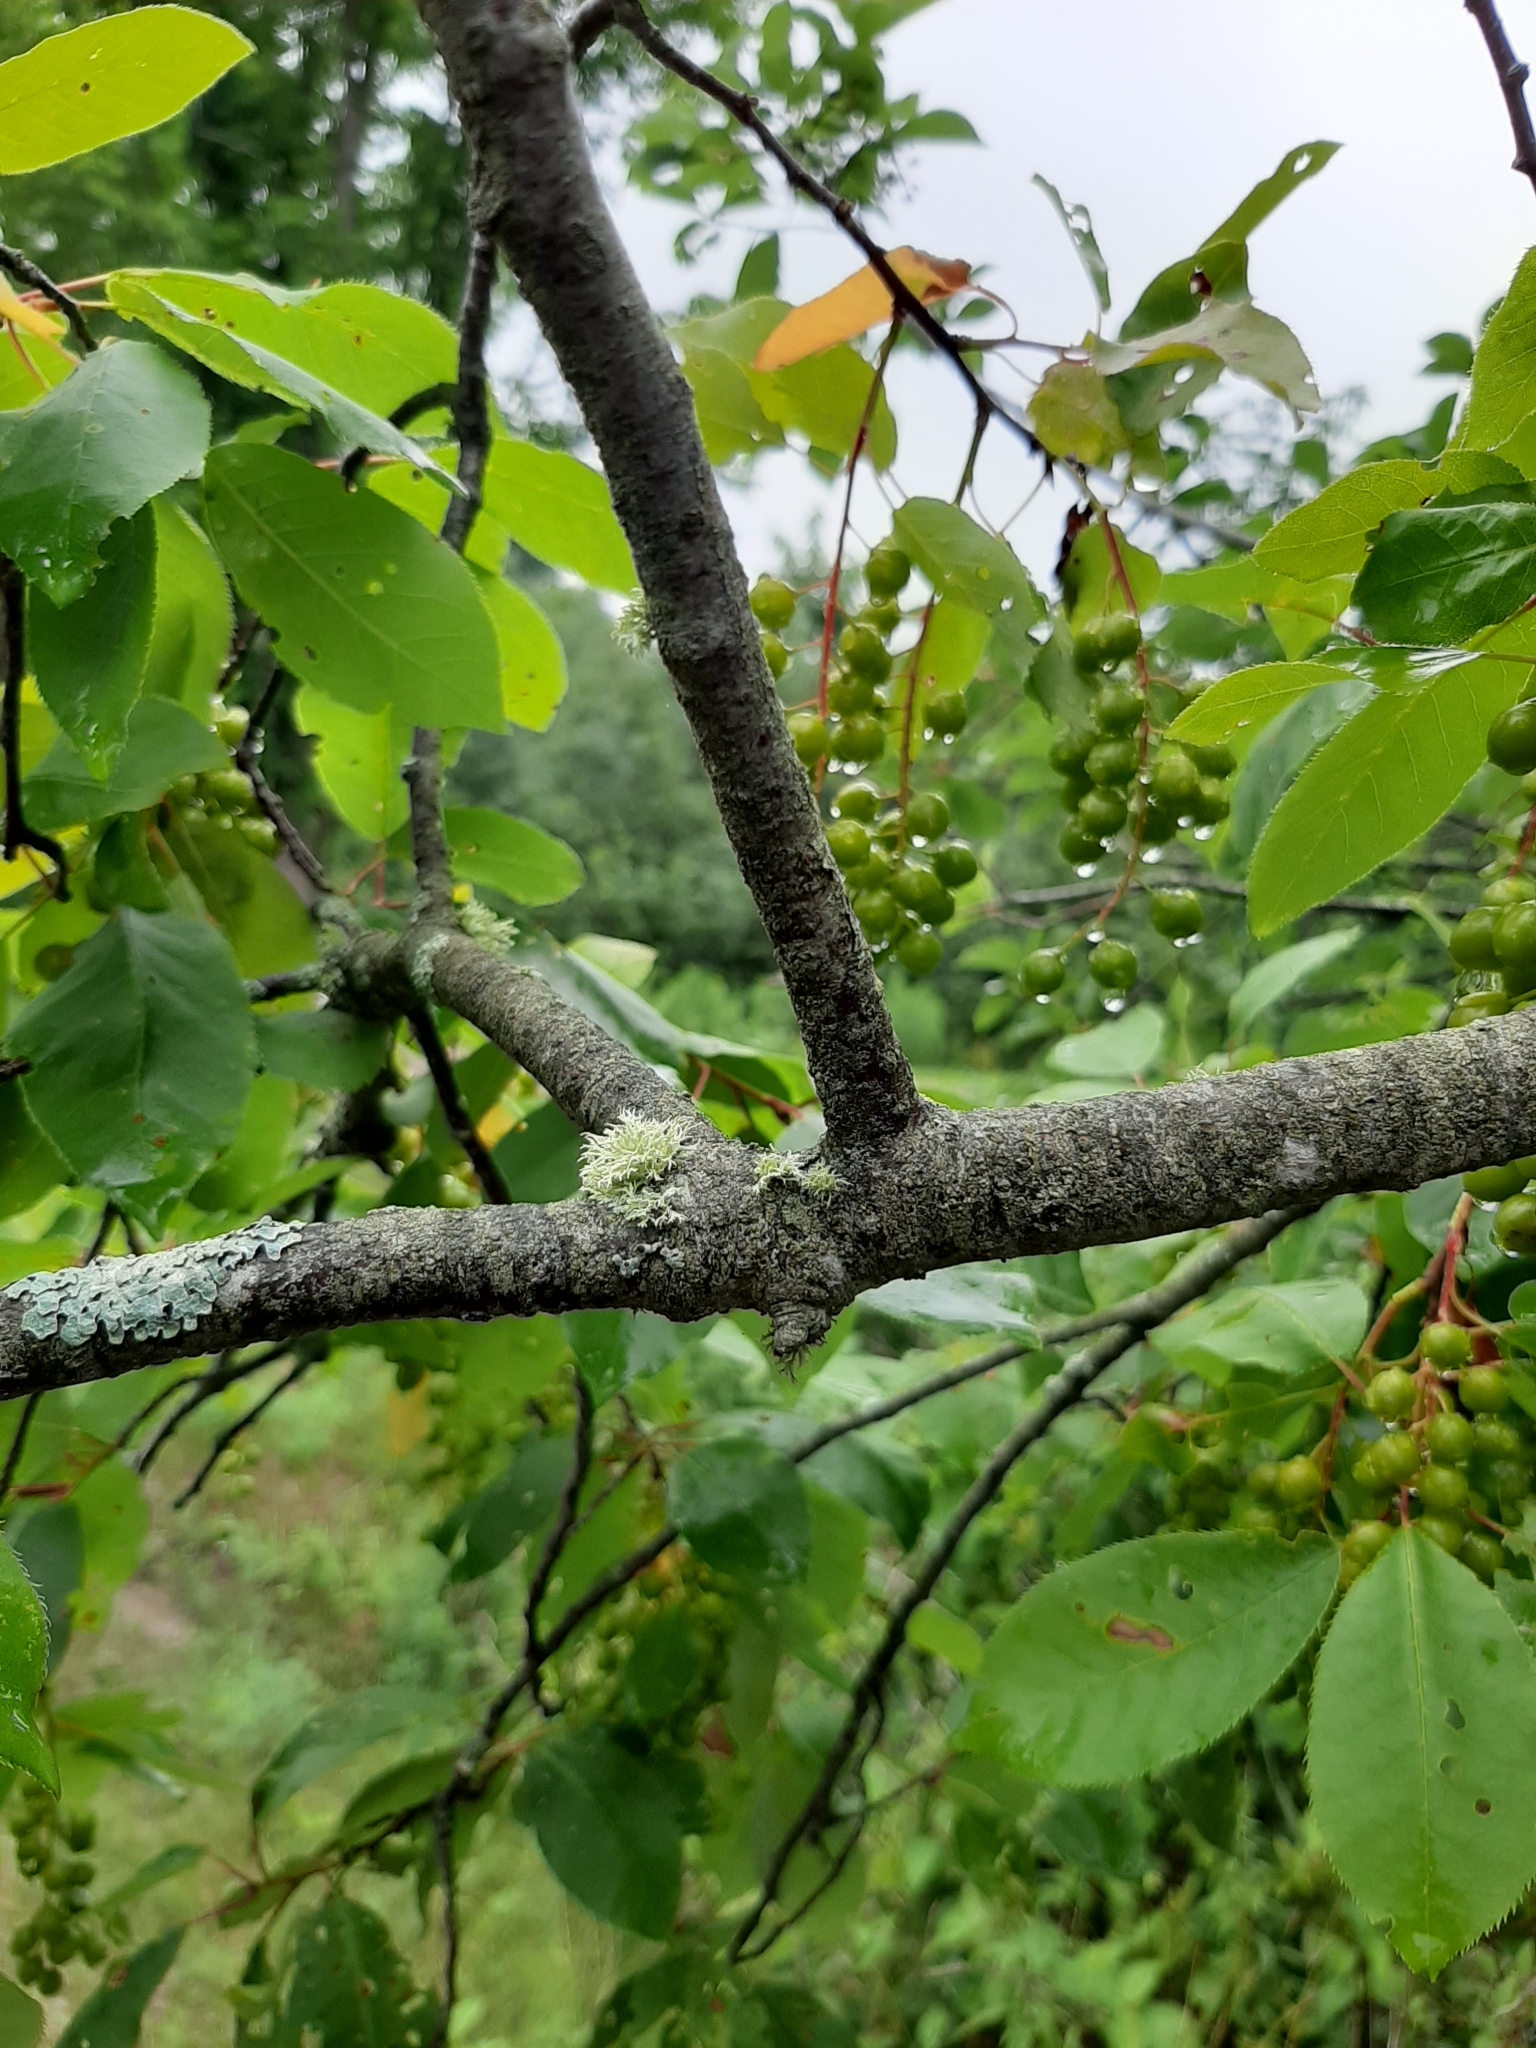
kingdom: Plantae
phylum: Tracheophyta
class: Magnoliopsida
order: Rosales
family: Rosaceae
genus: Prunus
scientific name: Prunus virginiana
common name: Chokecherry
